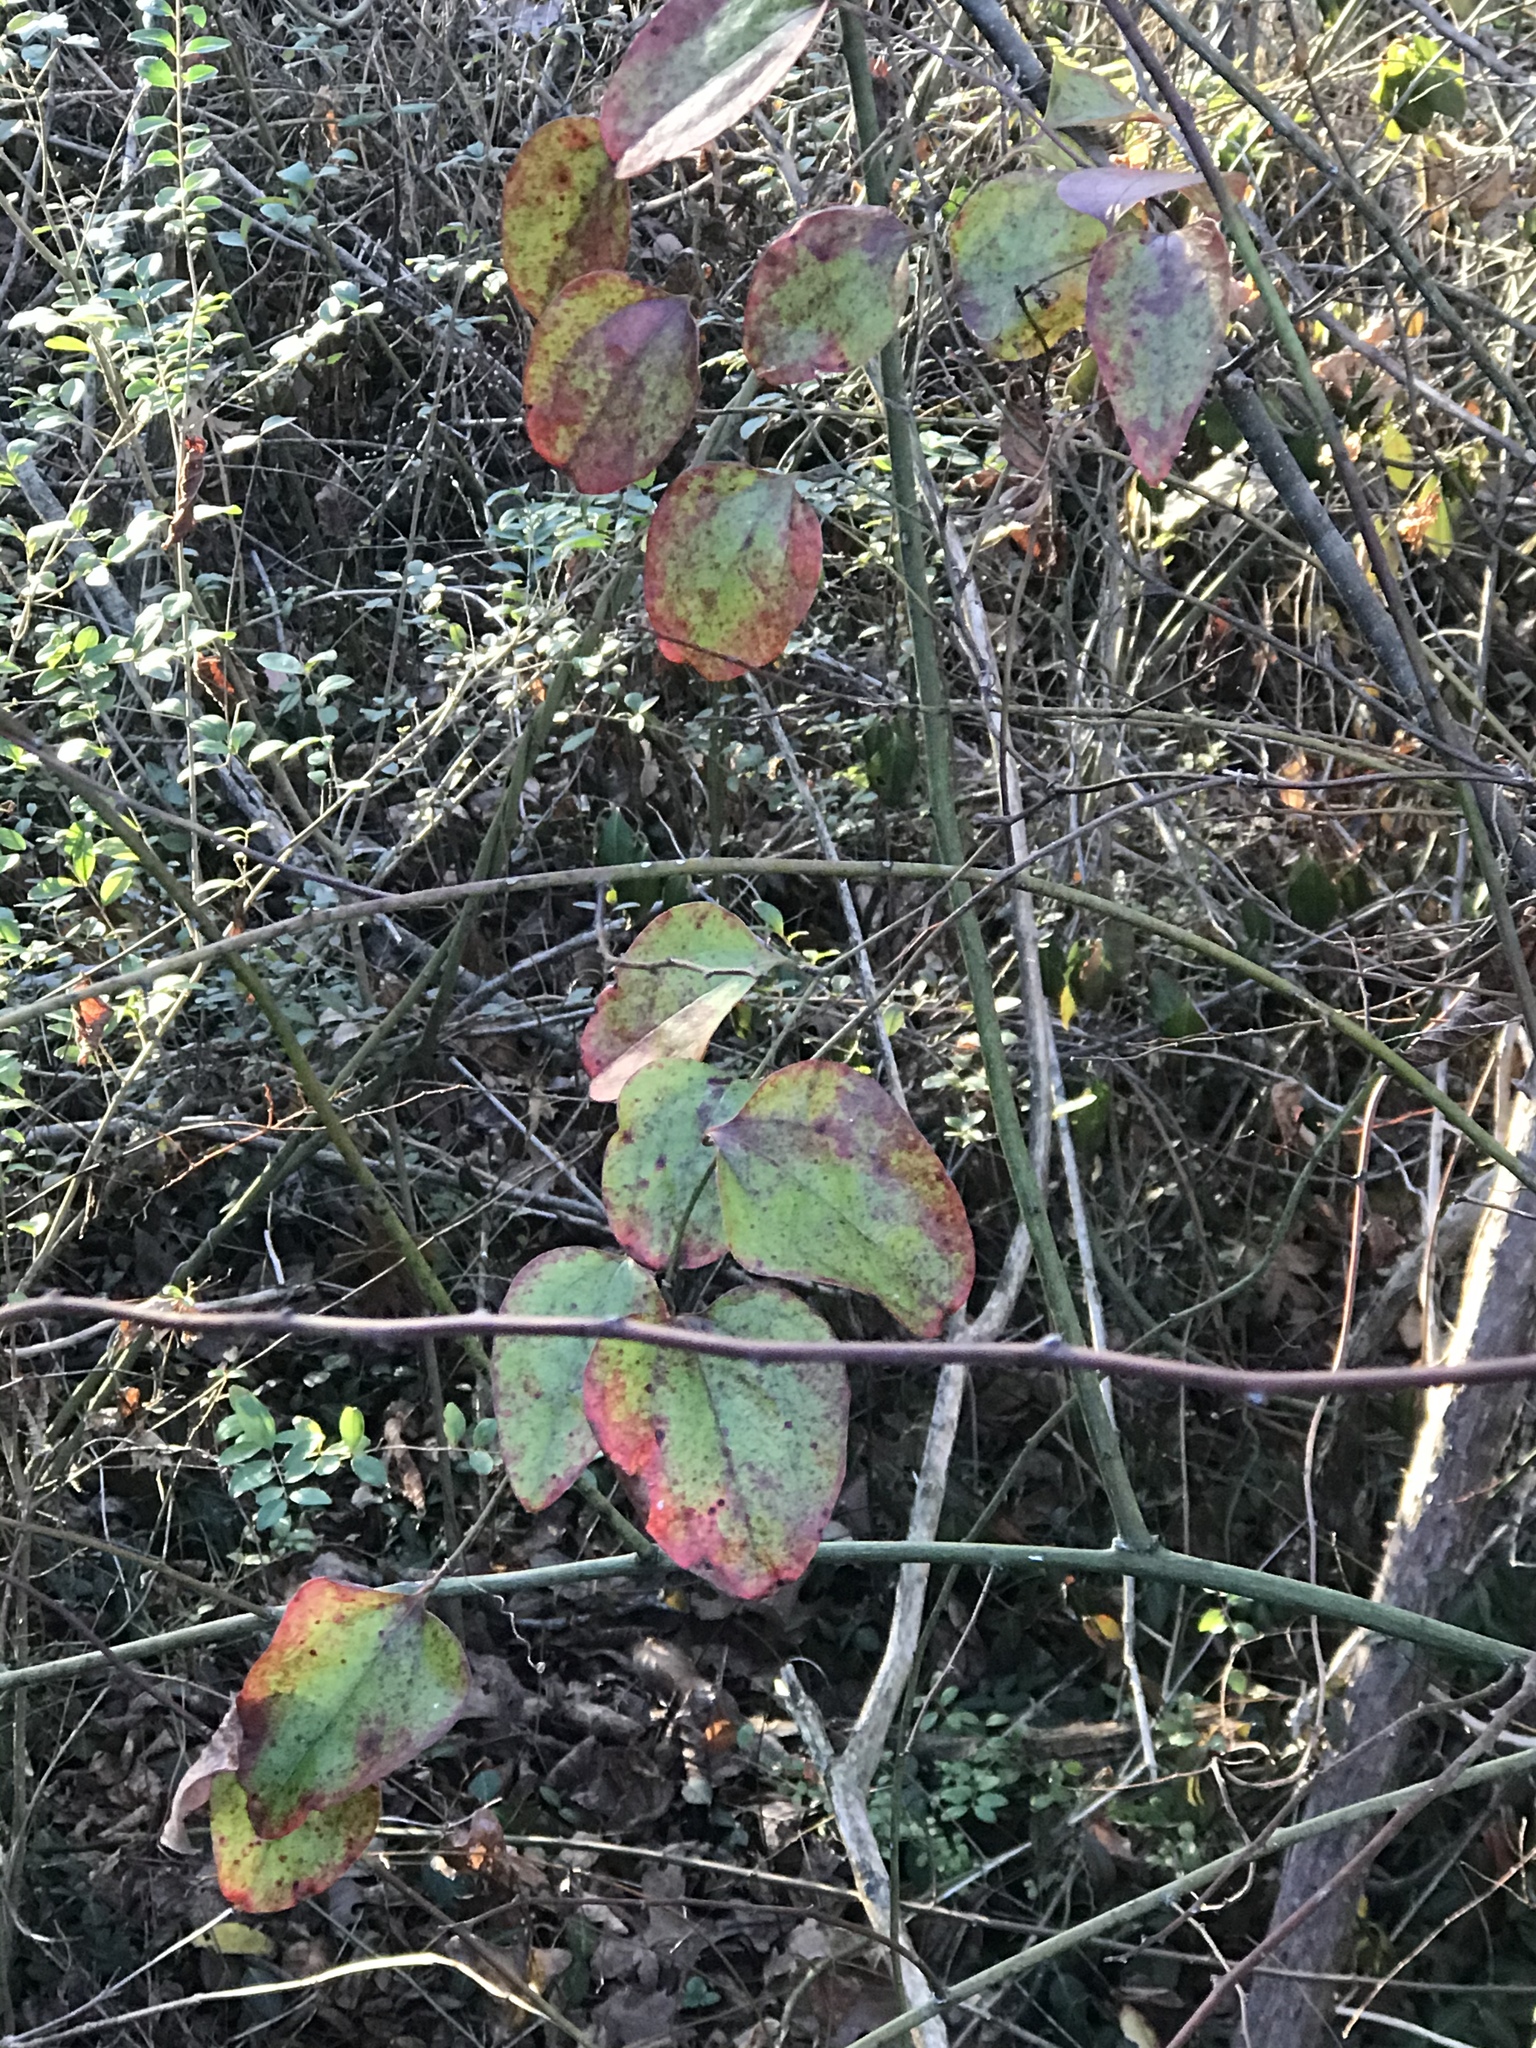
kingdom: Plantae
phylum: Tracheophyta
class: Liliopsida
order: Liliales
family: Smilacaceae
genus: Smilax
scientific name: Smilax glauca
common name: Cat greenbrier
